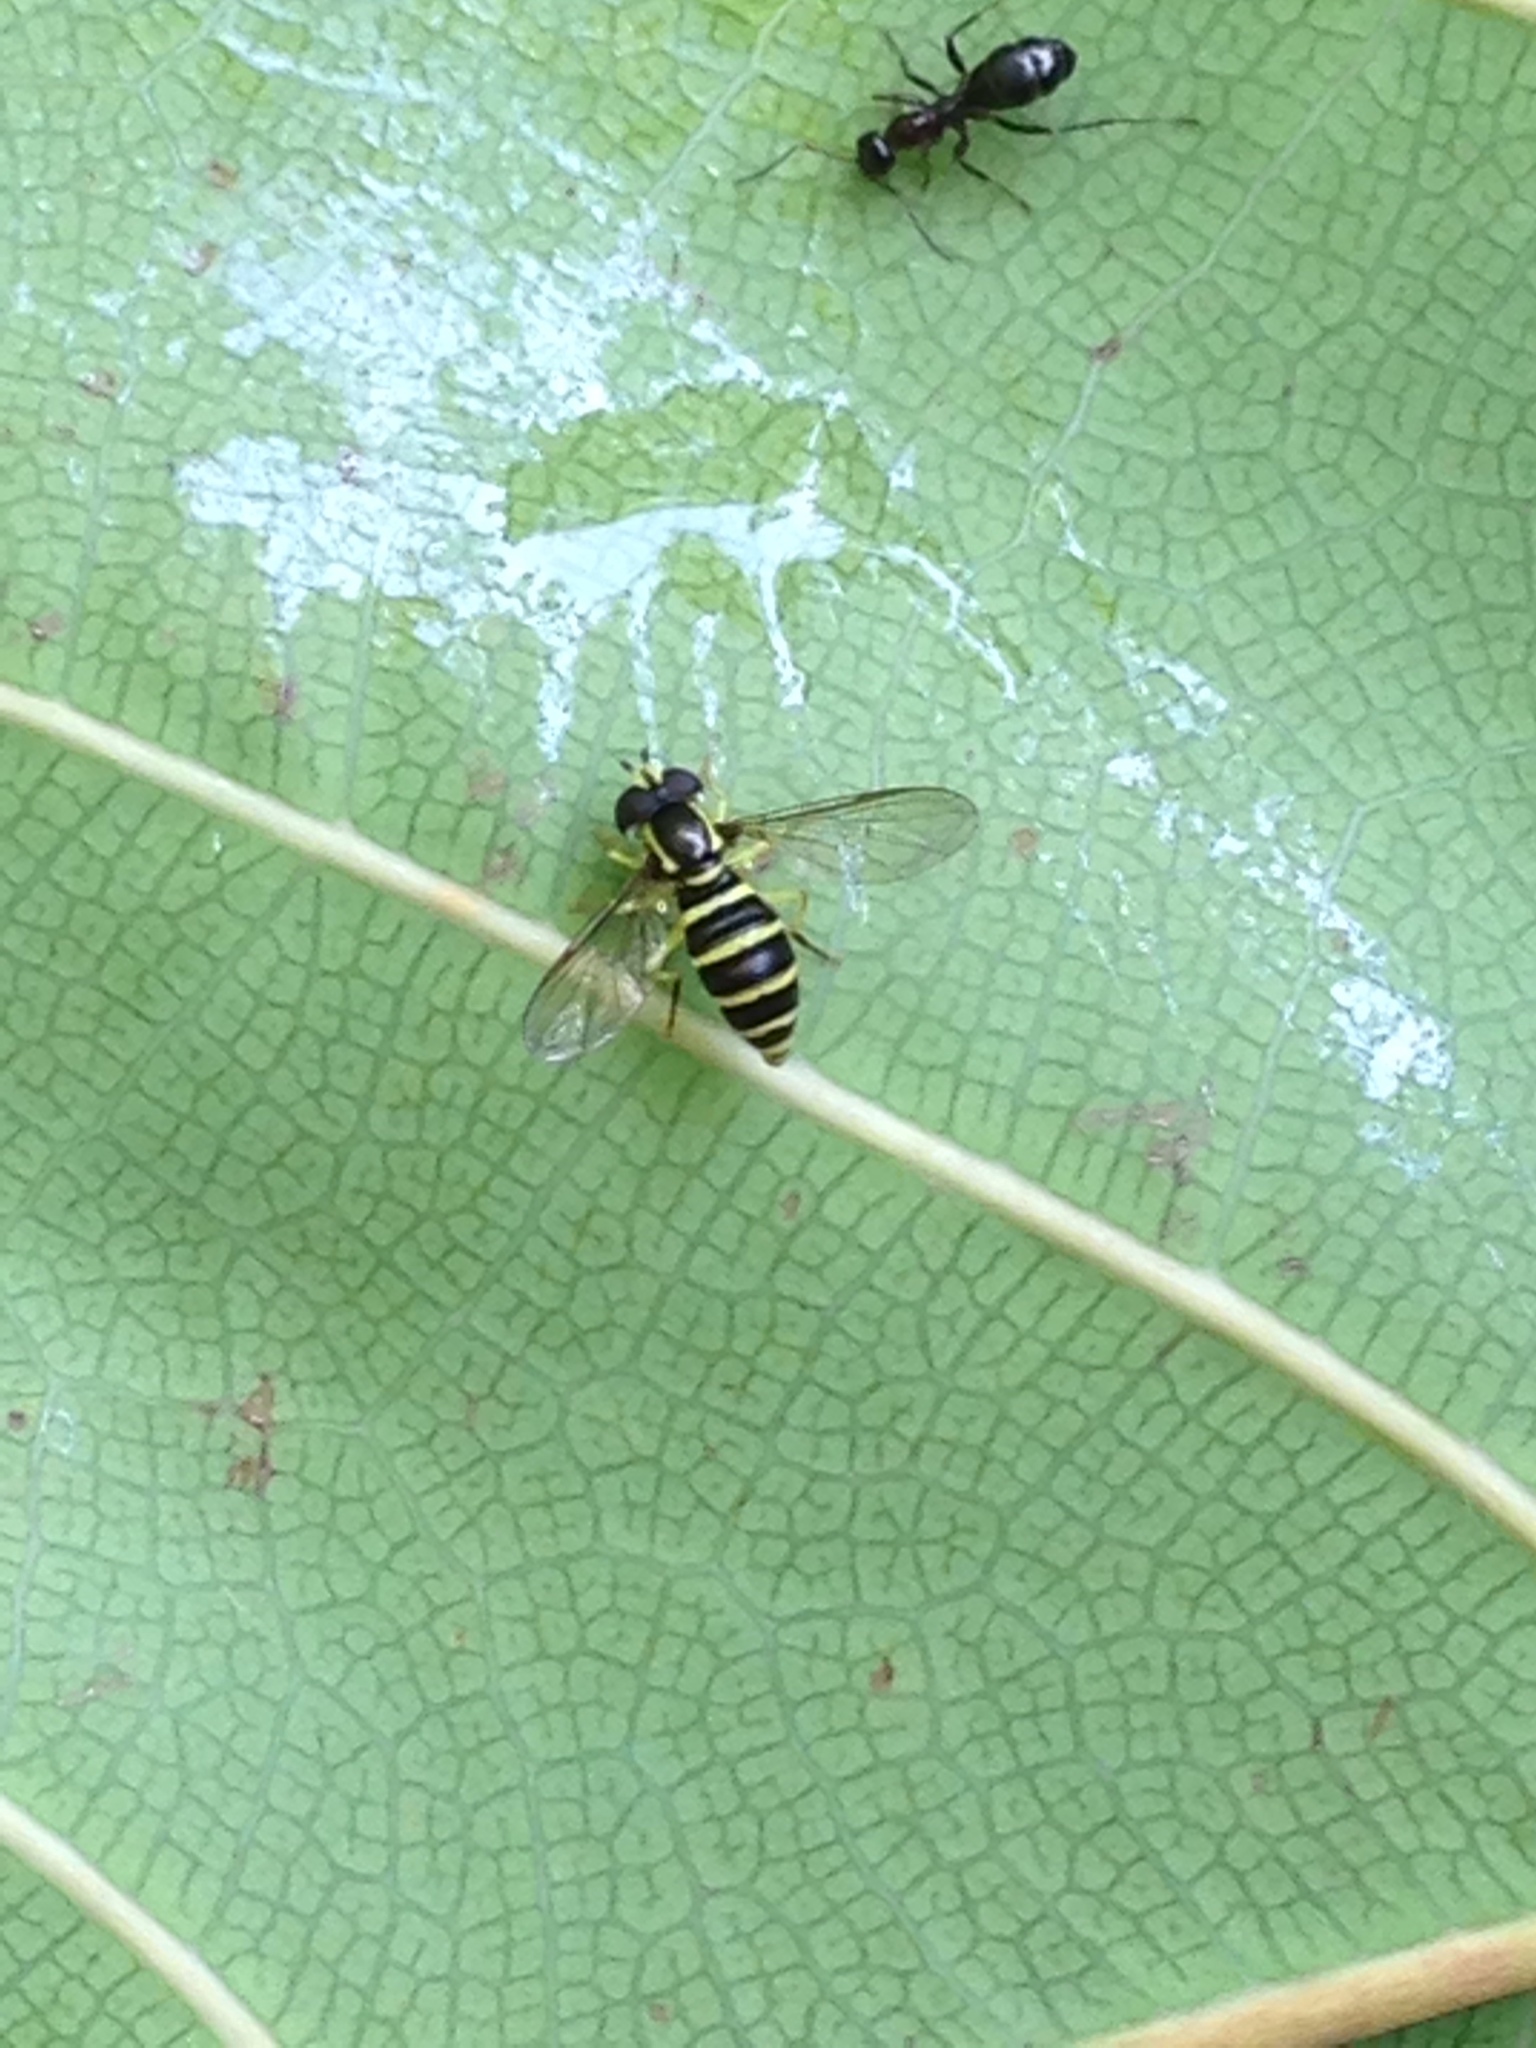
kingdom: Animalia
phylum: Arthropoda
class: Insecta
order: Diptera
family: Syrphidae
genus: Philhelius
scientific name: Philhelius flavipes
